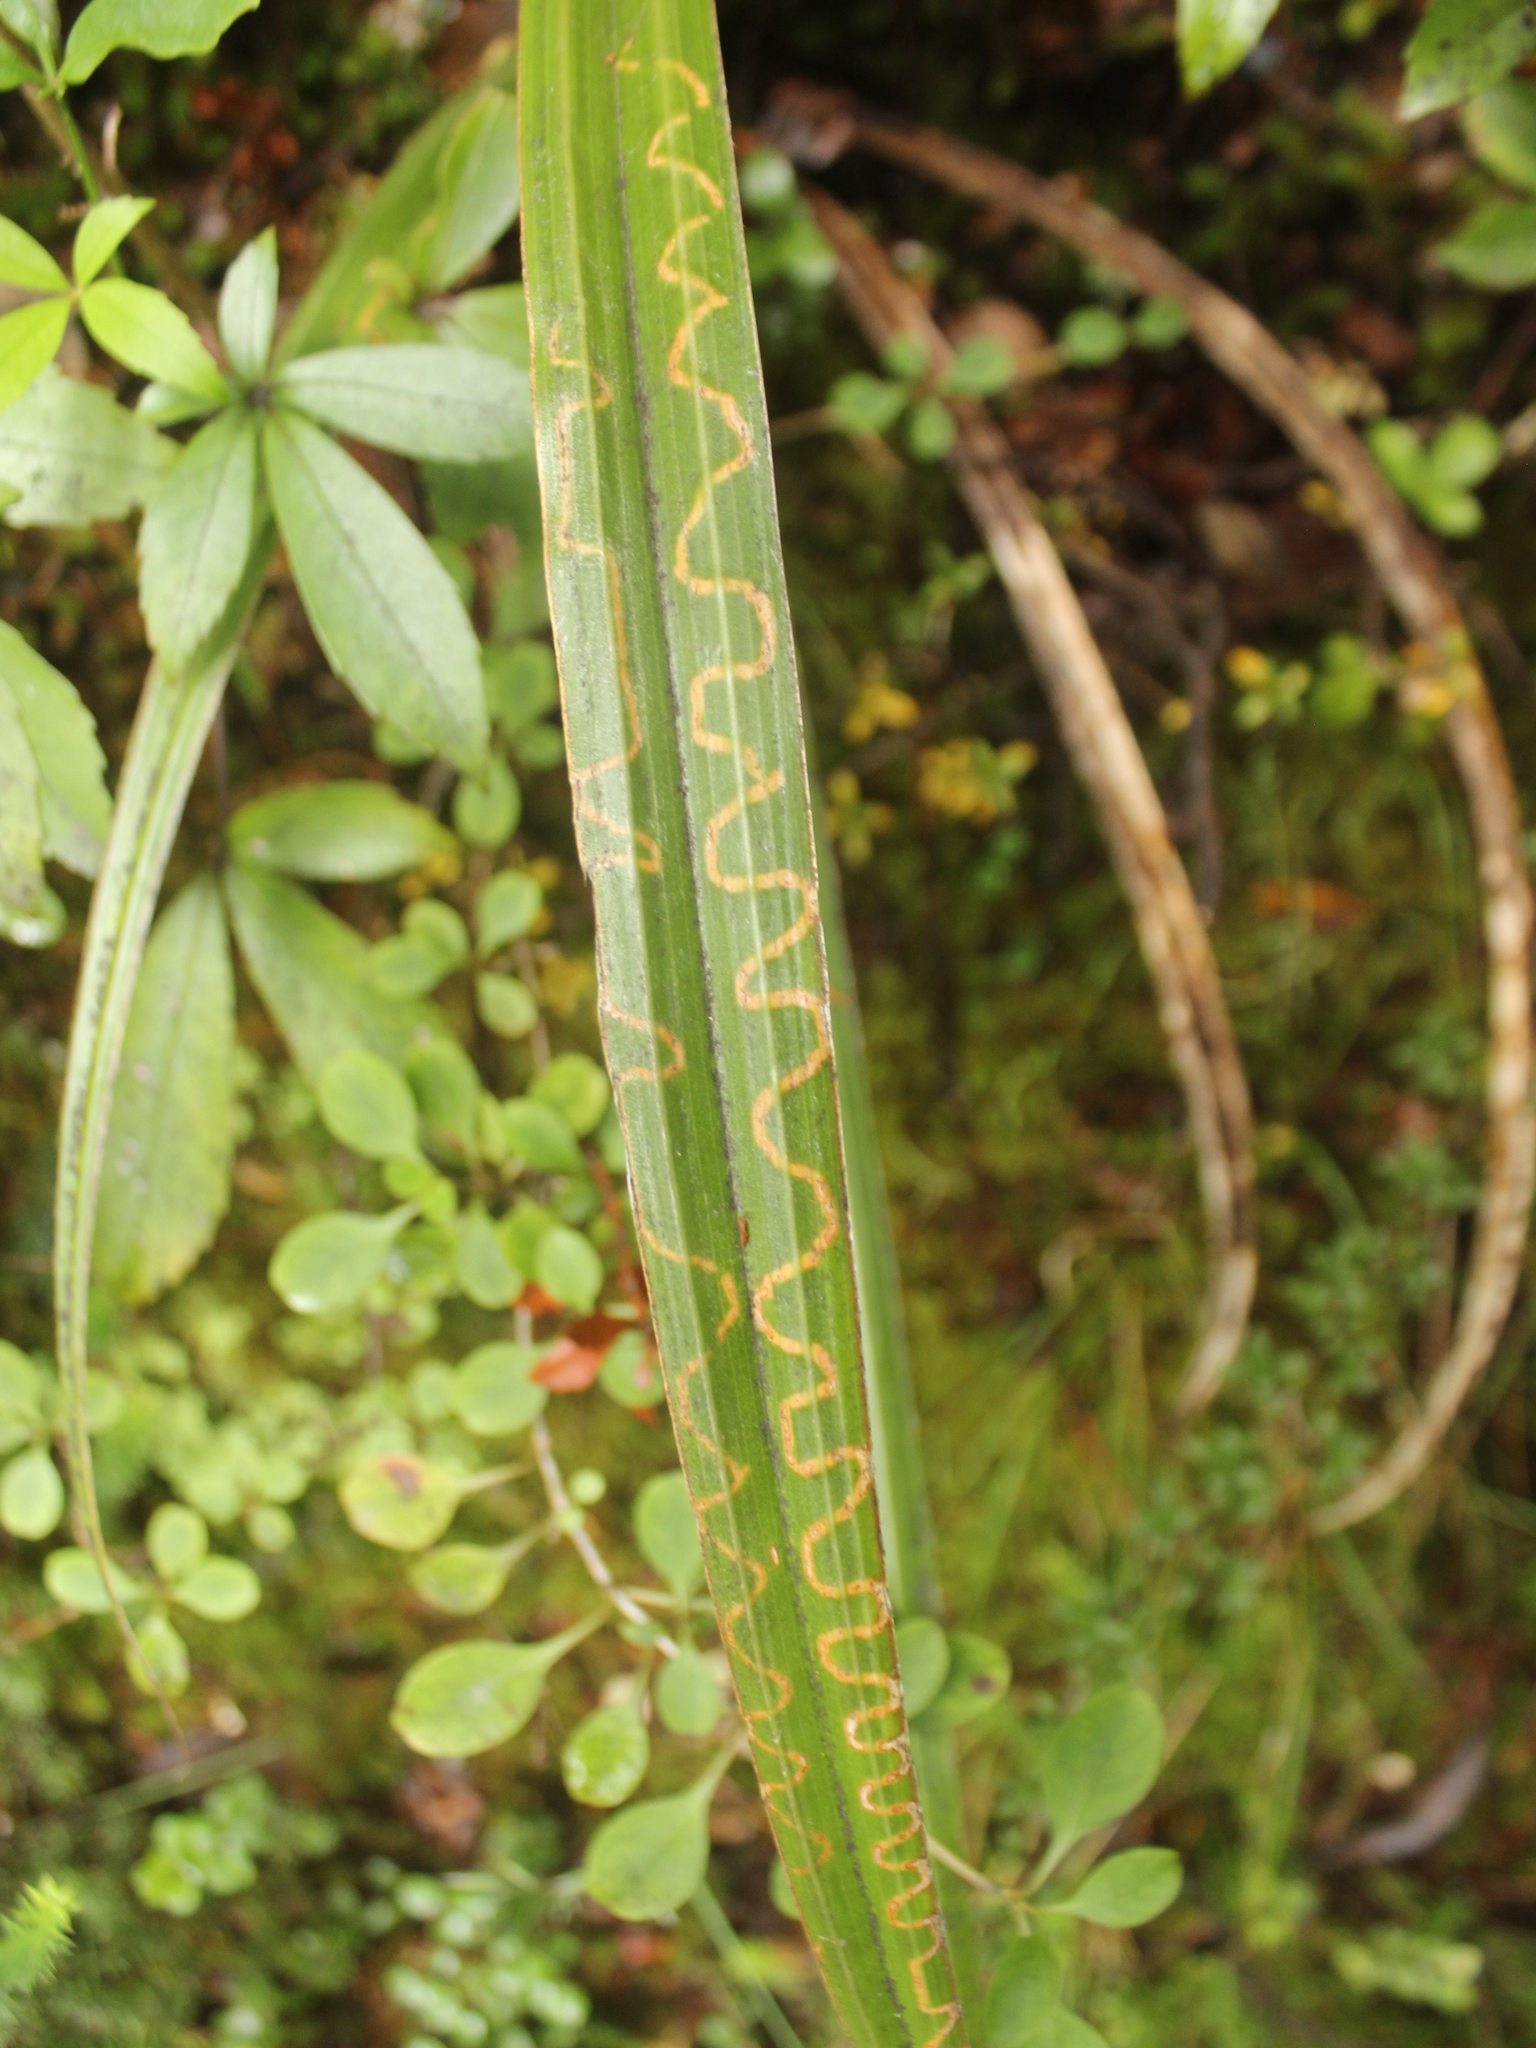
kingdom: Animalia
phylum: Arthropoda
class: Insecta
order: Lepidoptera
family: Plutellidae
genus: Charixena
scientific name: Charixena iridoxa
